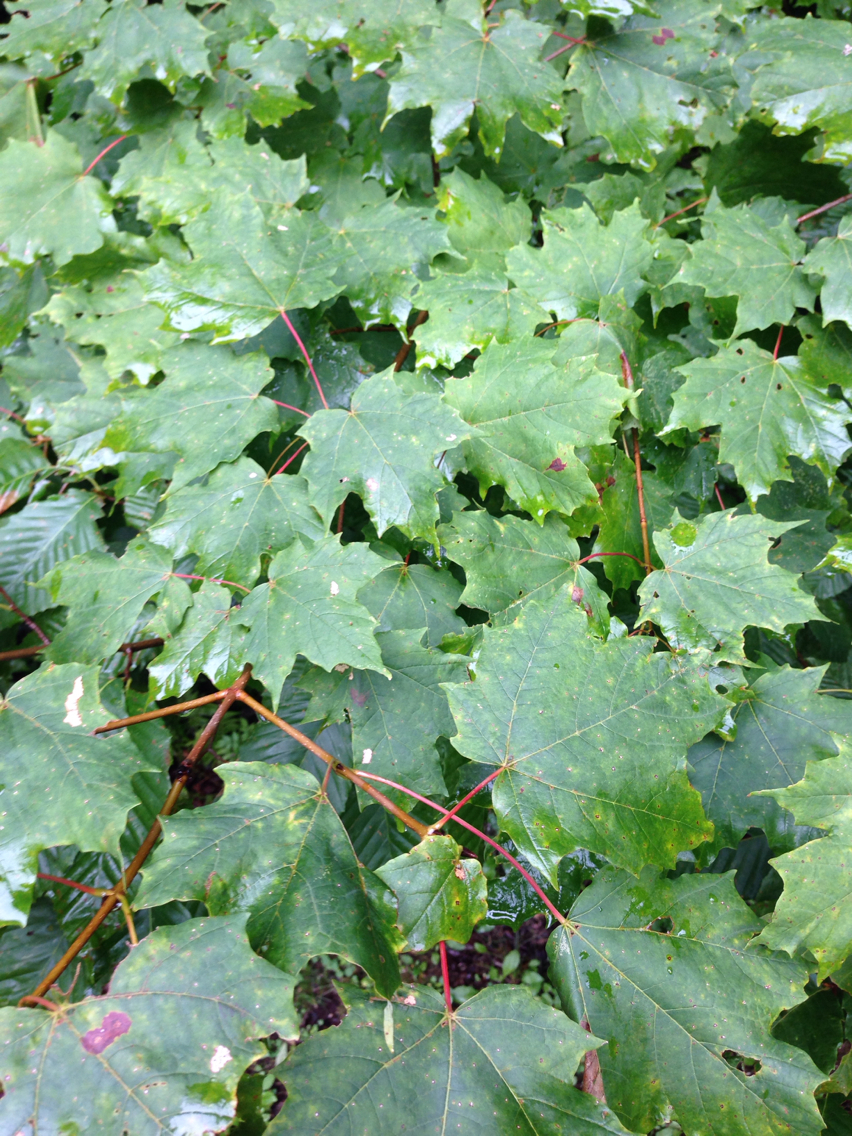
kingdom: Plantae
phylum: Tracheophyta
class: Magnoliopsida
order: Sapindales
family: Sapindaceae
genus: Acer
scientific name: Acer saccharum
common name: Sugar maple
